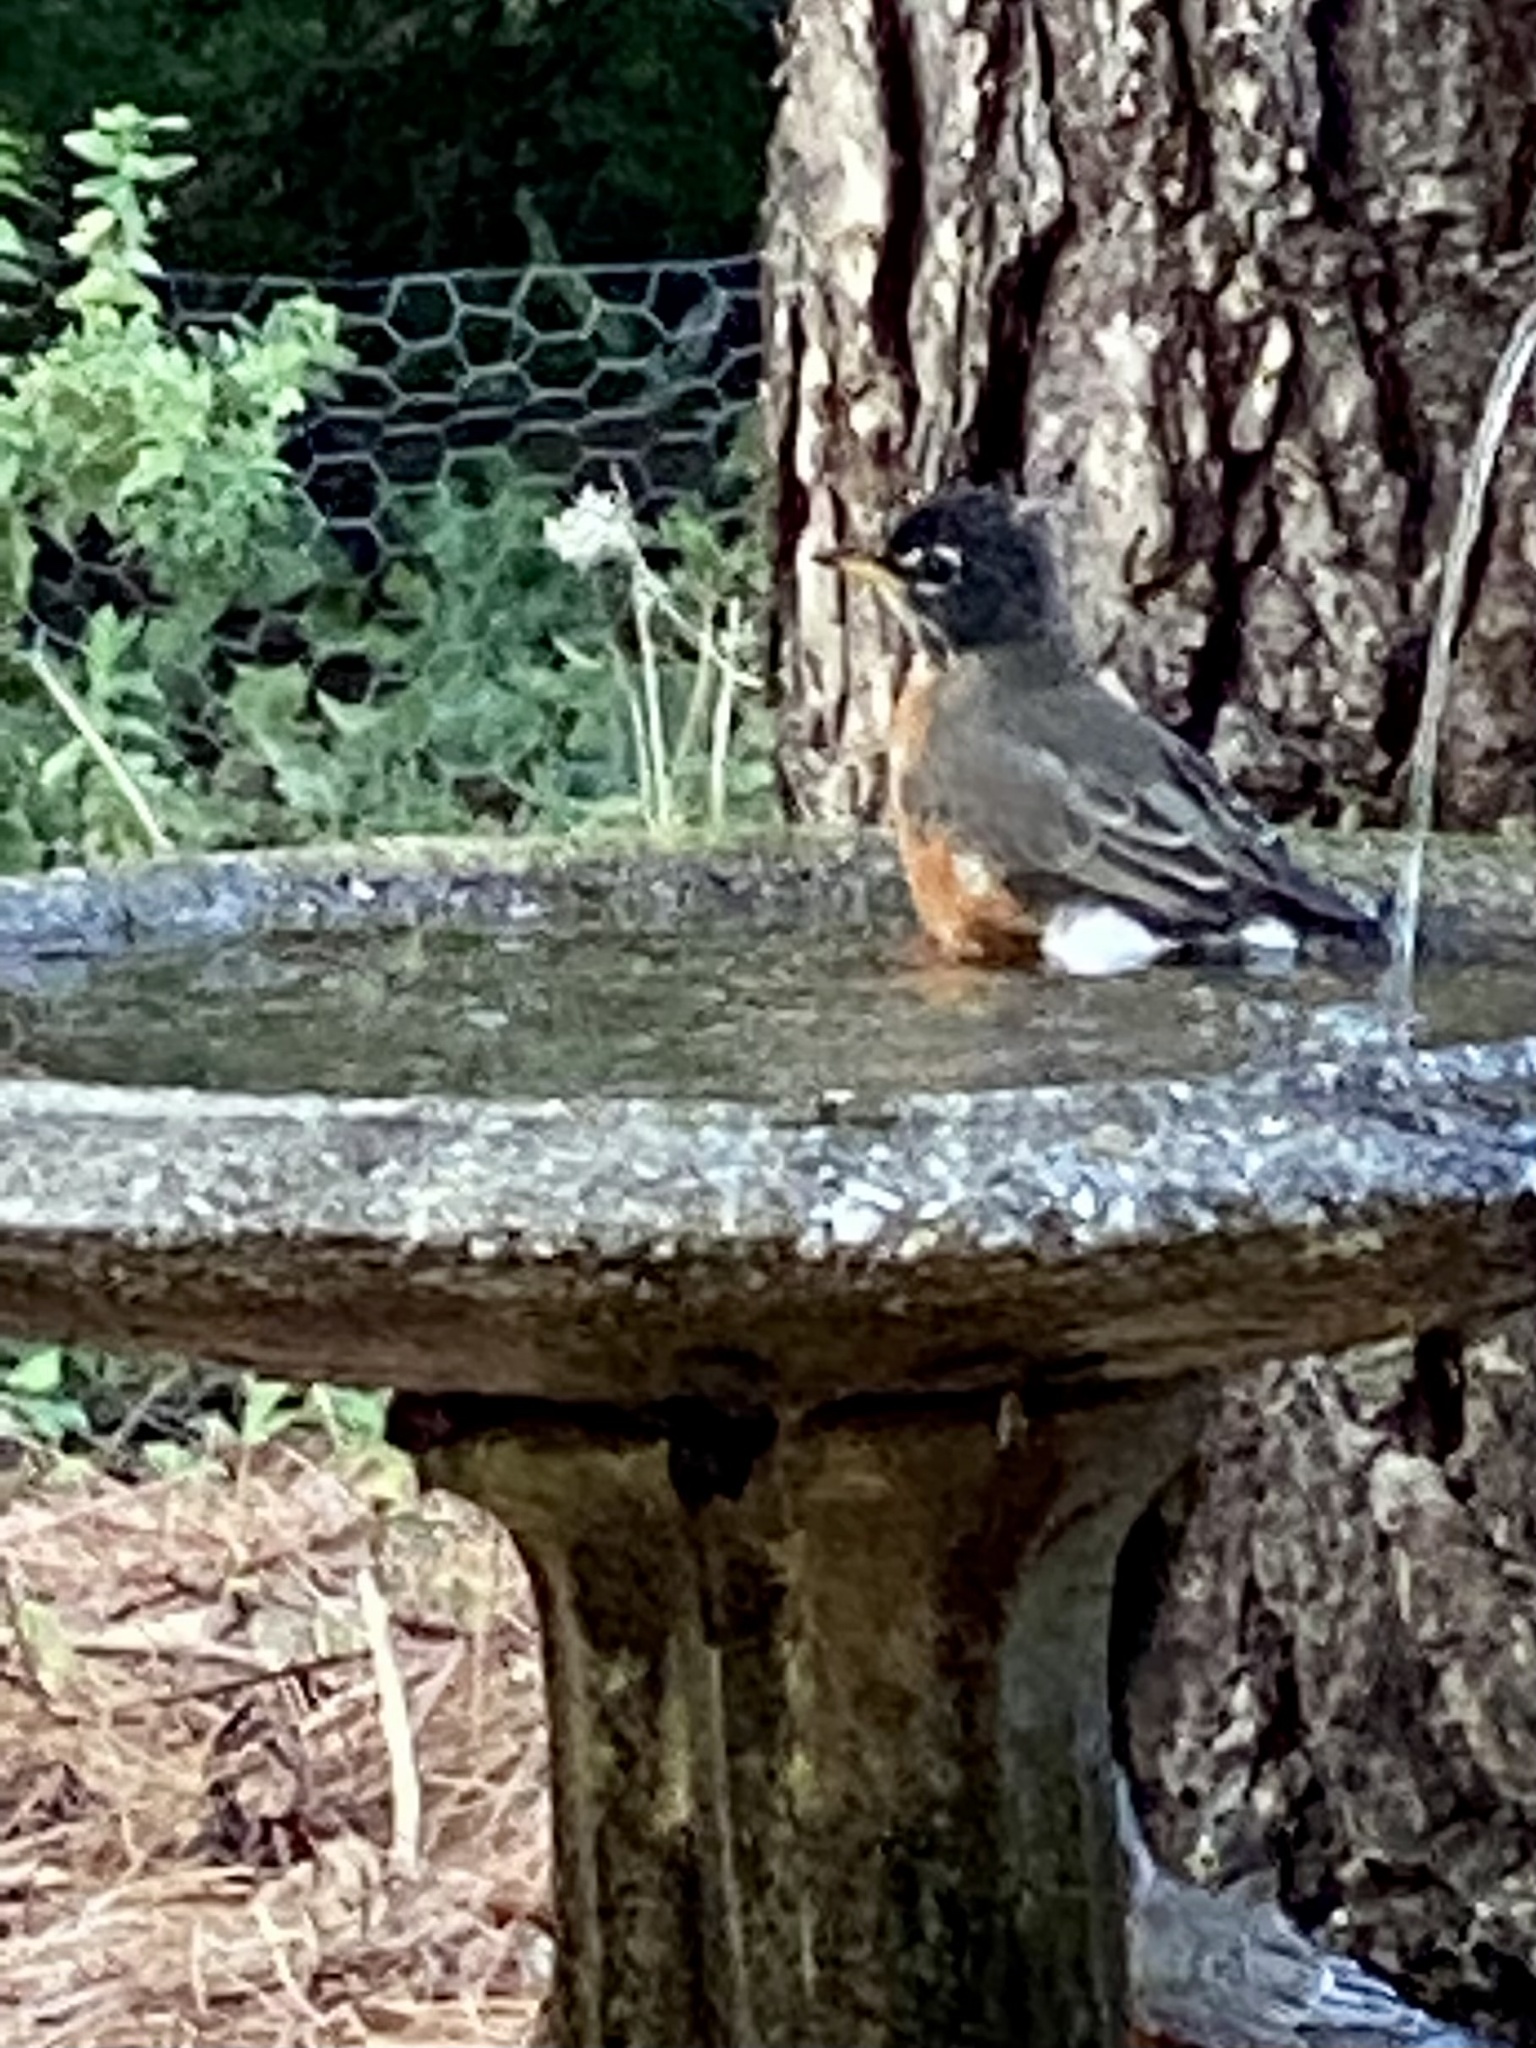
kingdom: Animalia
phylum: Chordata
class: Aves
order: Passeriformes
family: Turdidae
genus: Turdus
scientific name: Turdus migratorius
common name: American robin
